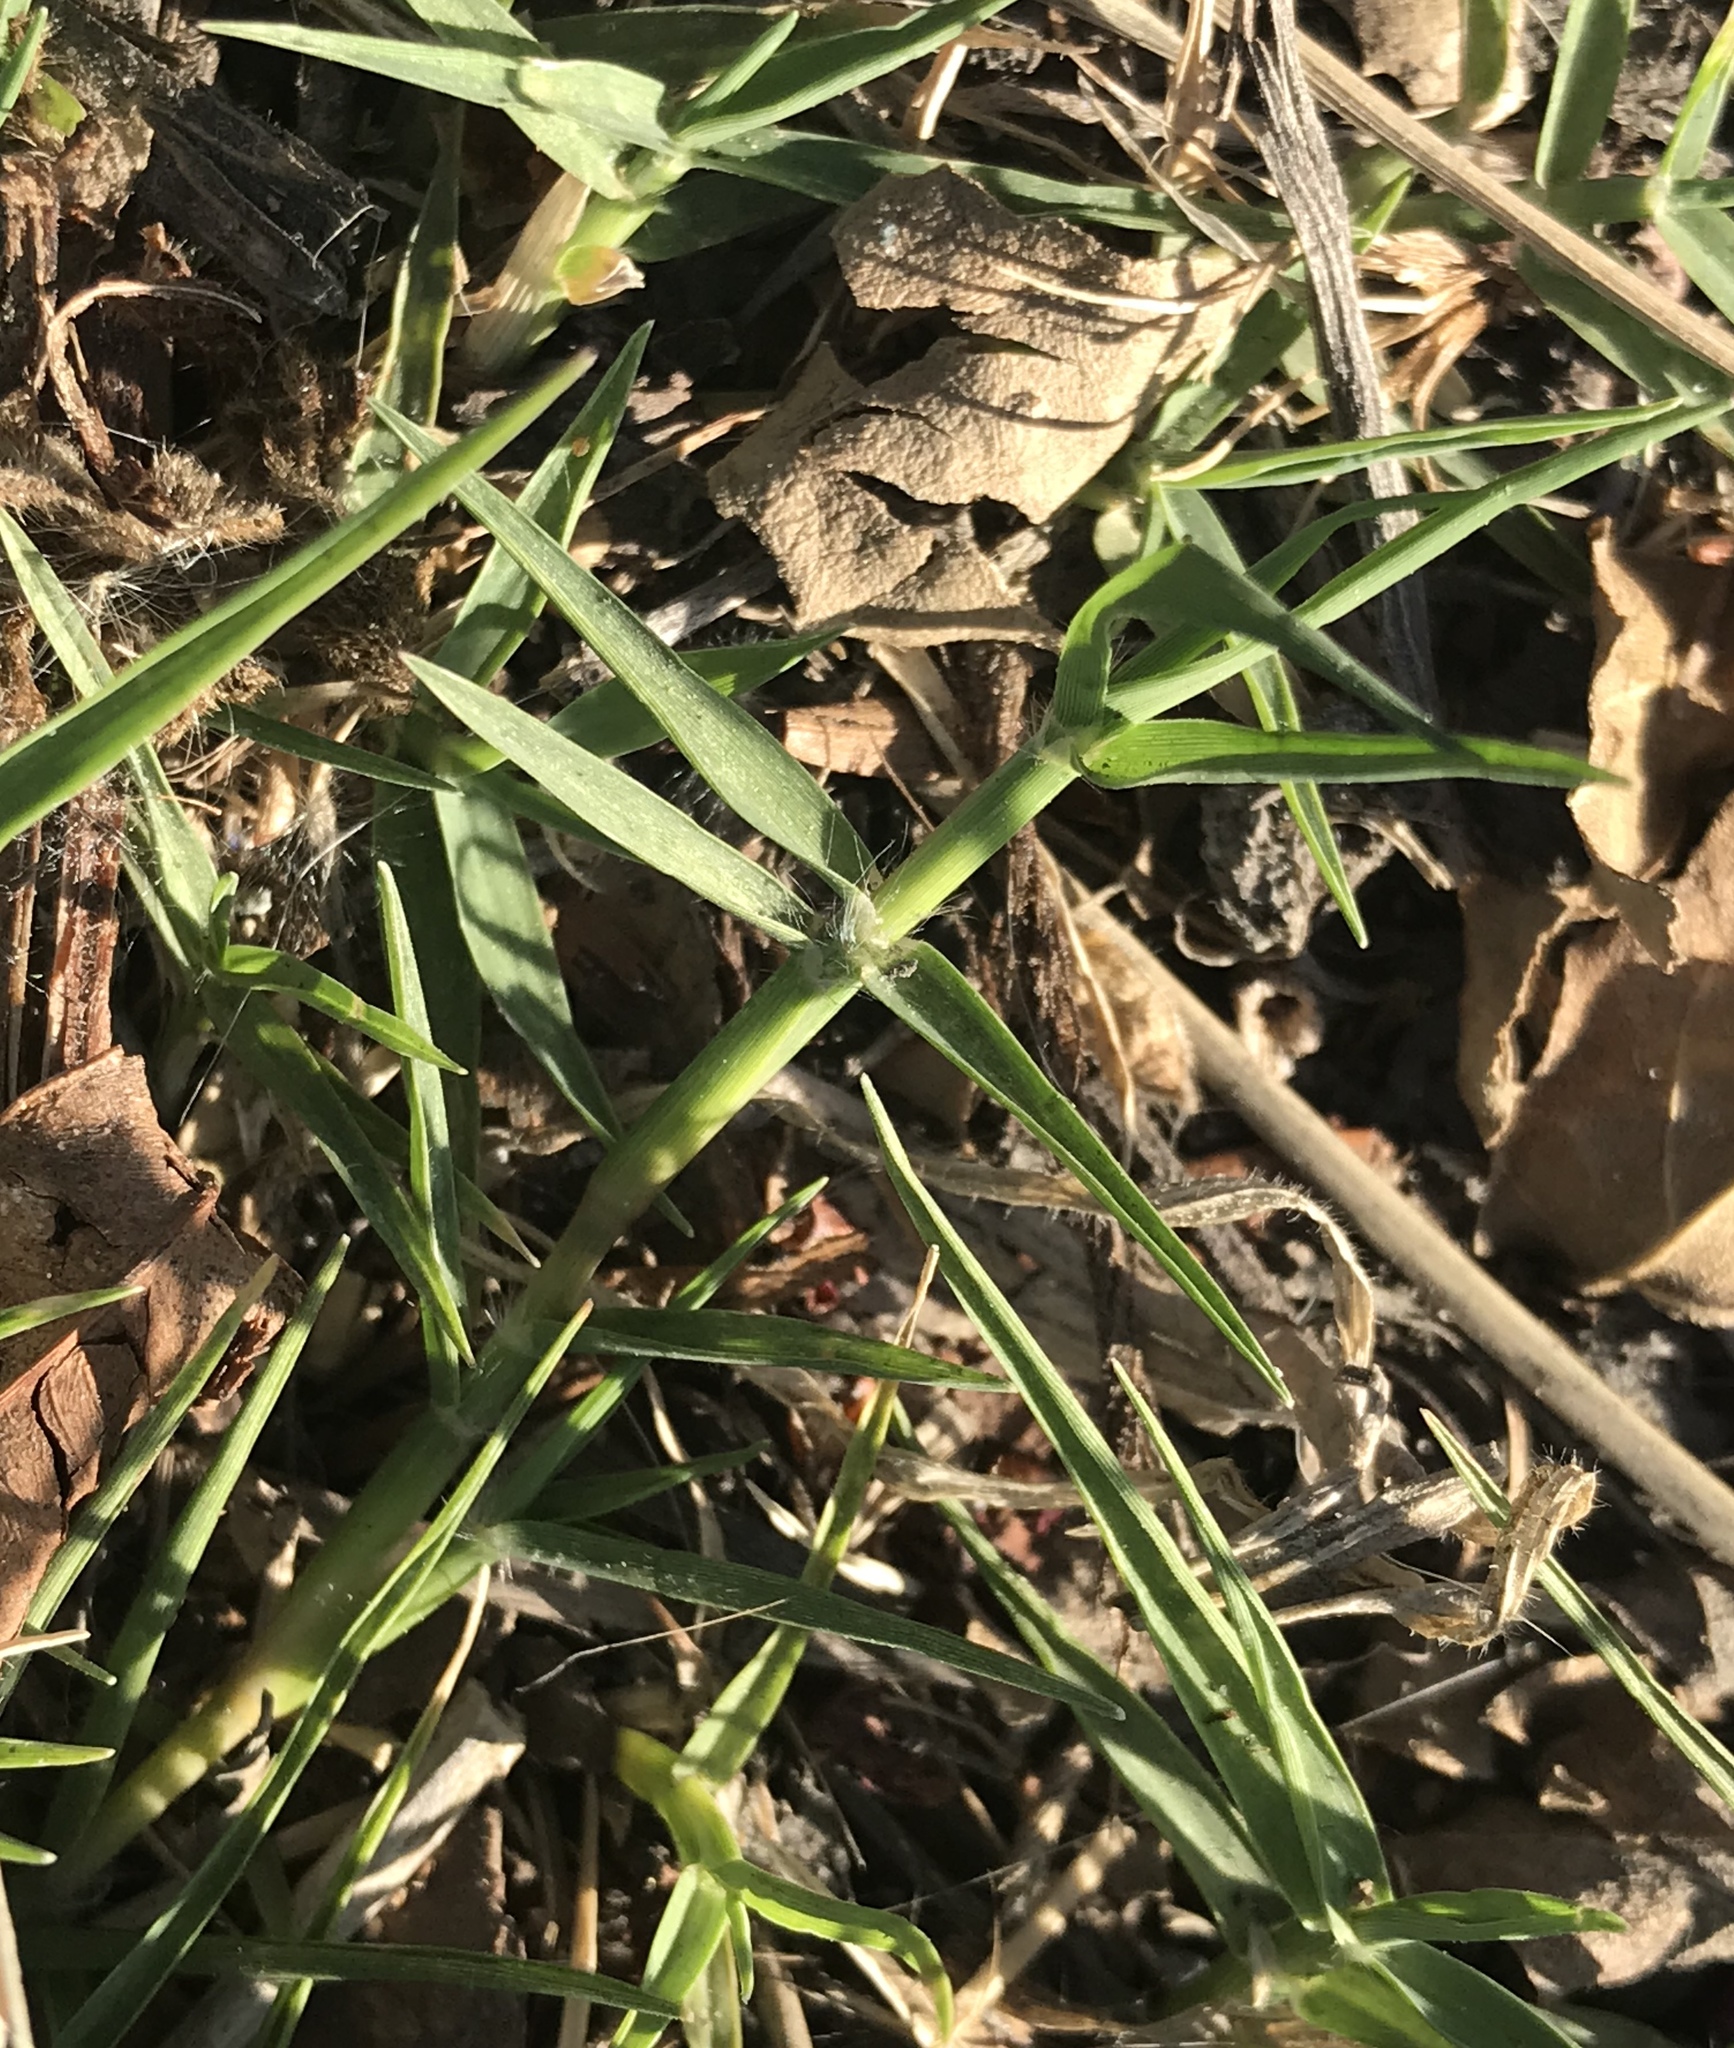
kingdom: Plantae
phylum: Tracheophyta
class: Liliopsida
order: Poales
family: Poaceae
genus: Cynodon
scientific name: Cynodon dactylon
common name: Bermuda grass
